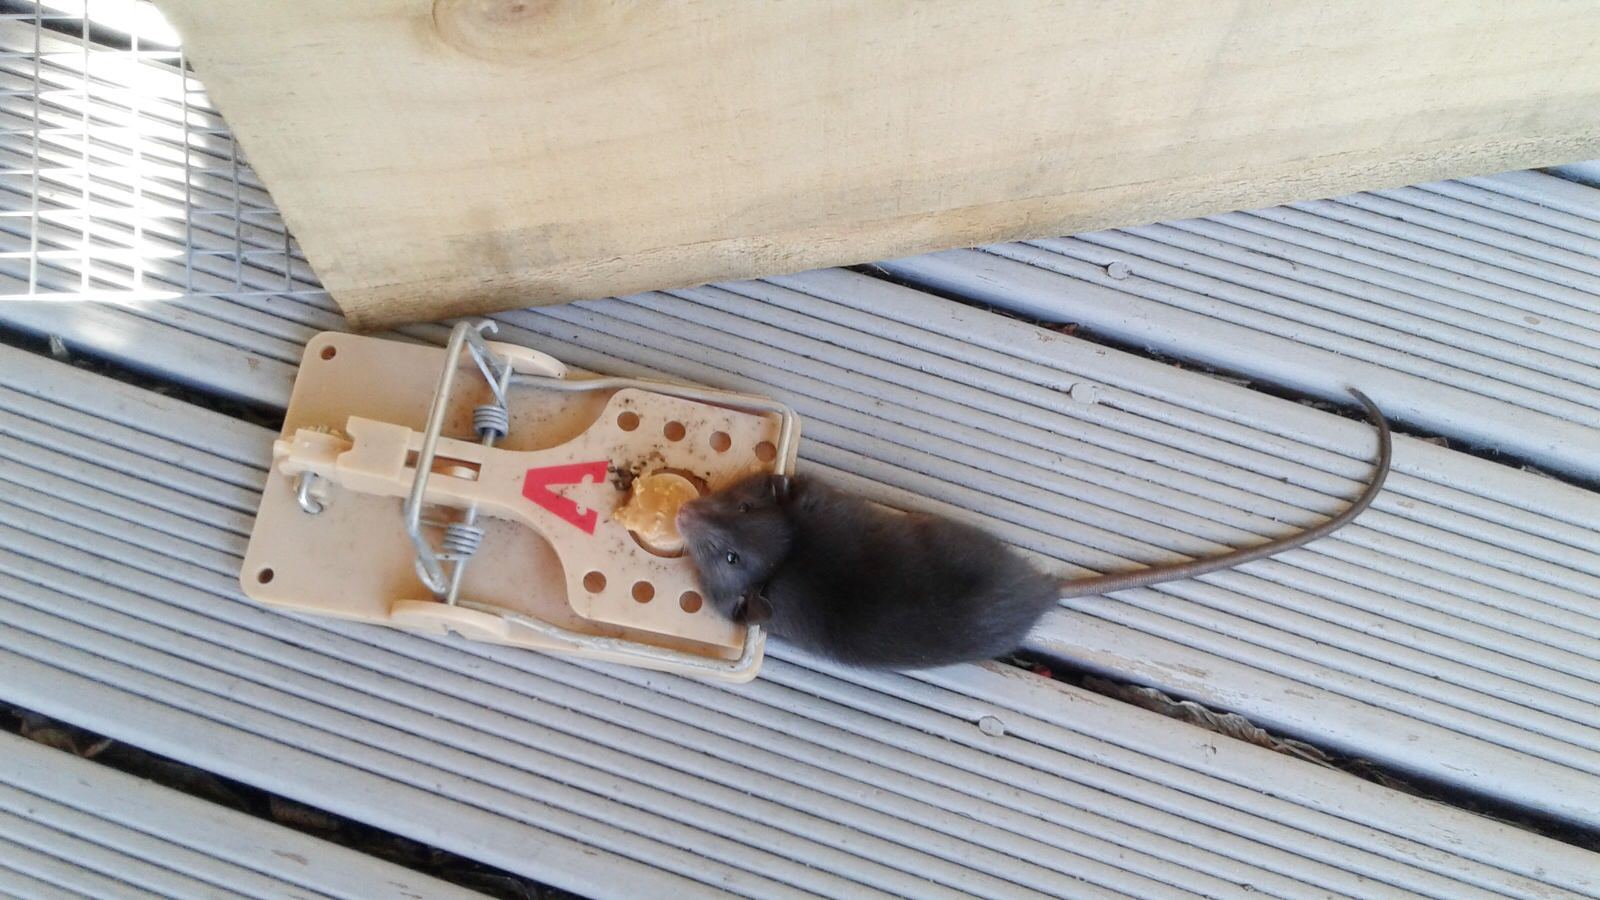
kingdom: Animalia
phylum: Chordata
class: Mammalia
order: Rodentia
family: Muridae
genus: Rattus
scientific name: Rattus rattus
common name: Black rat
